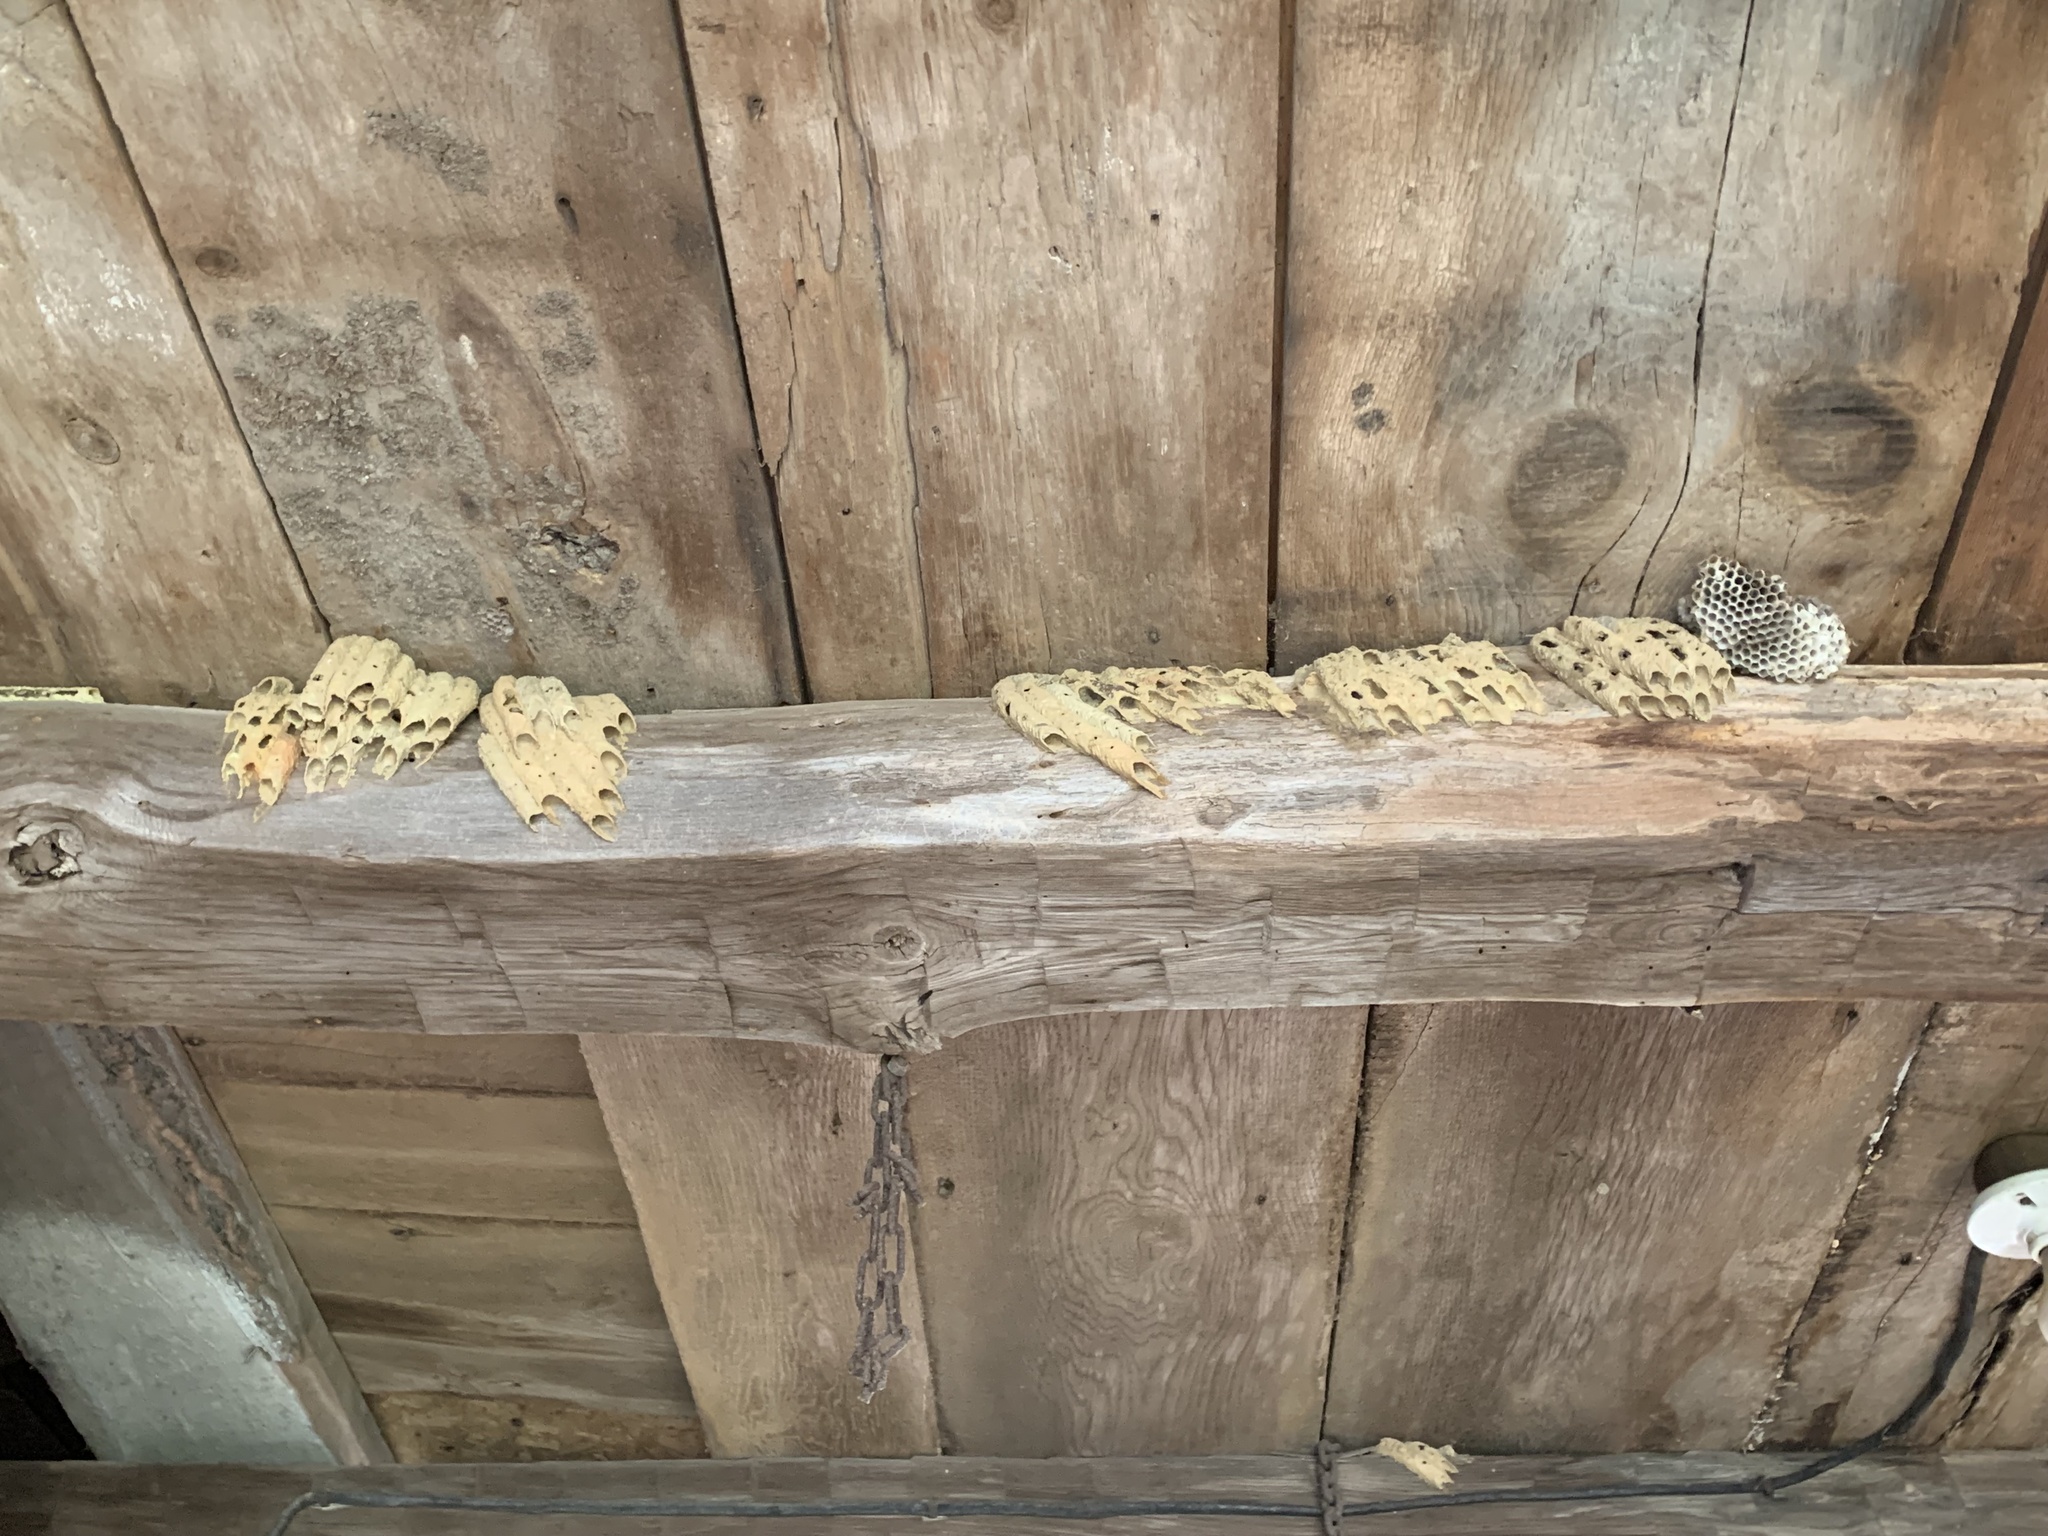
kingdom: Animalia
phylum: Arthropoda
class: Insecta
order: Hymenoptera
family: Crabronidae
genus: Trypoxylon
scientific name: Trypoxylon politum
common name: Organ-pipe mud-dauber wasp
